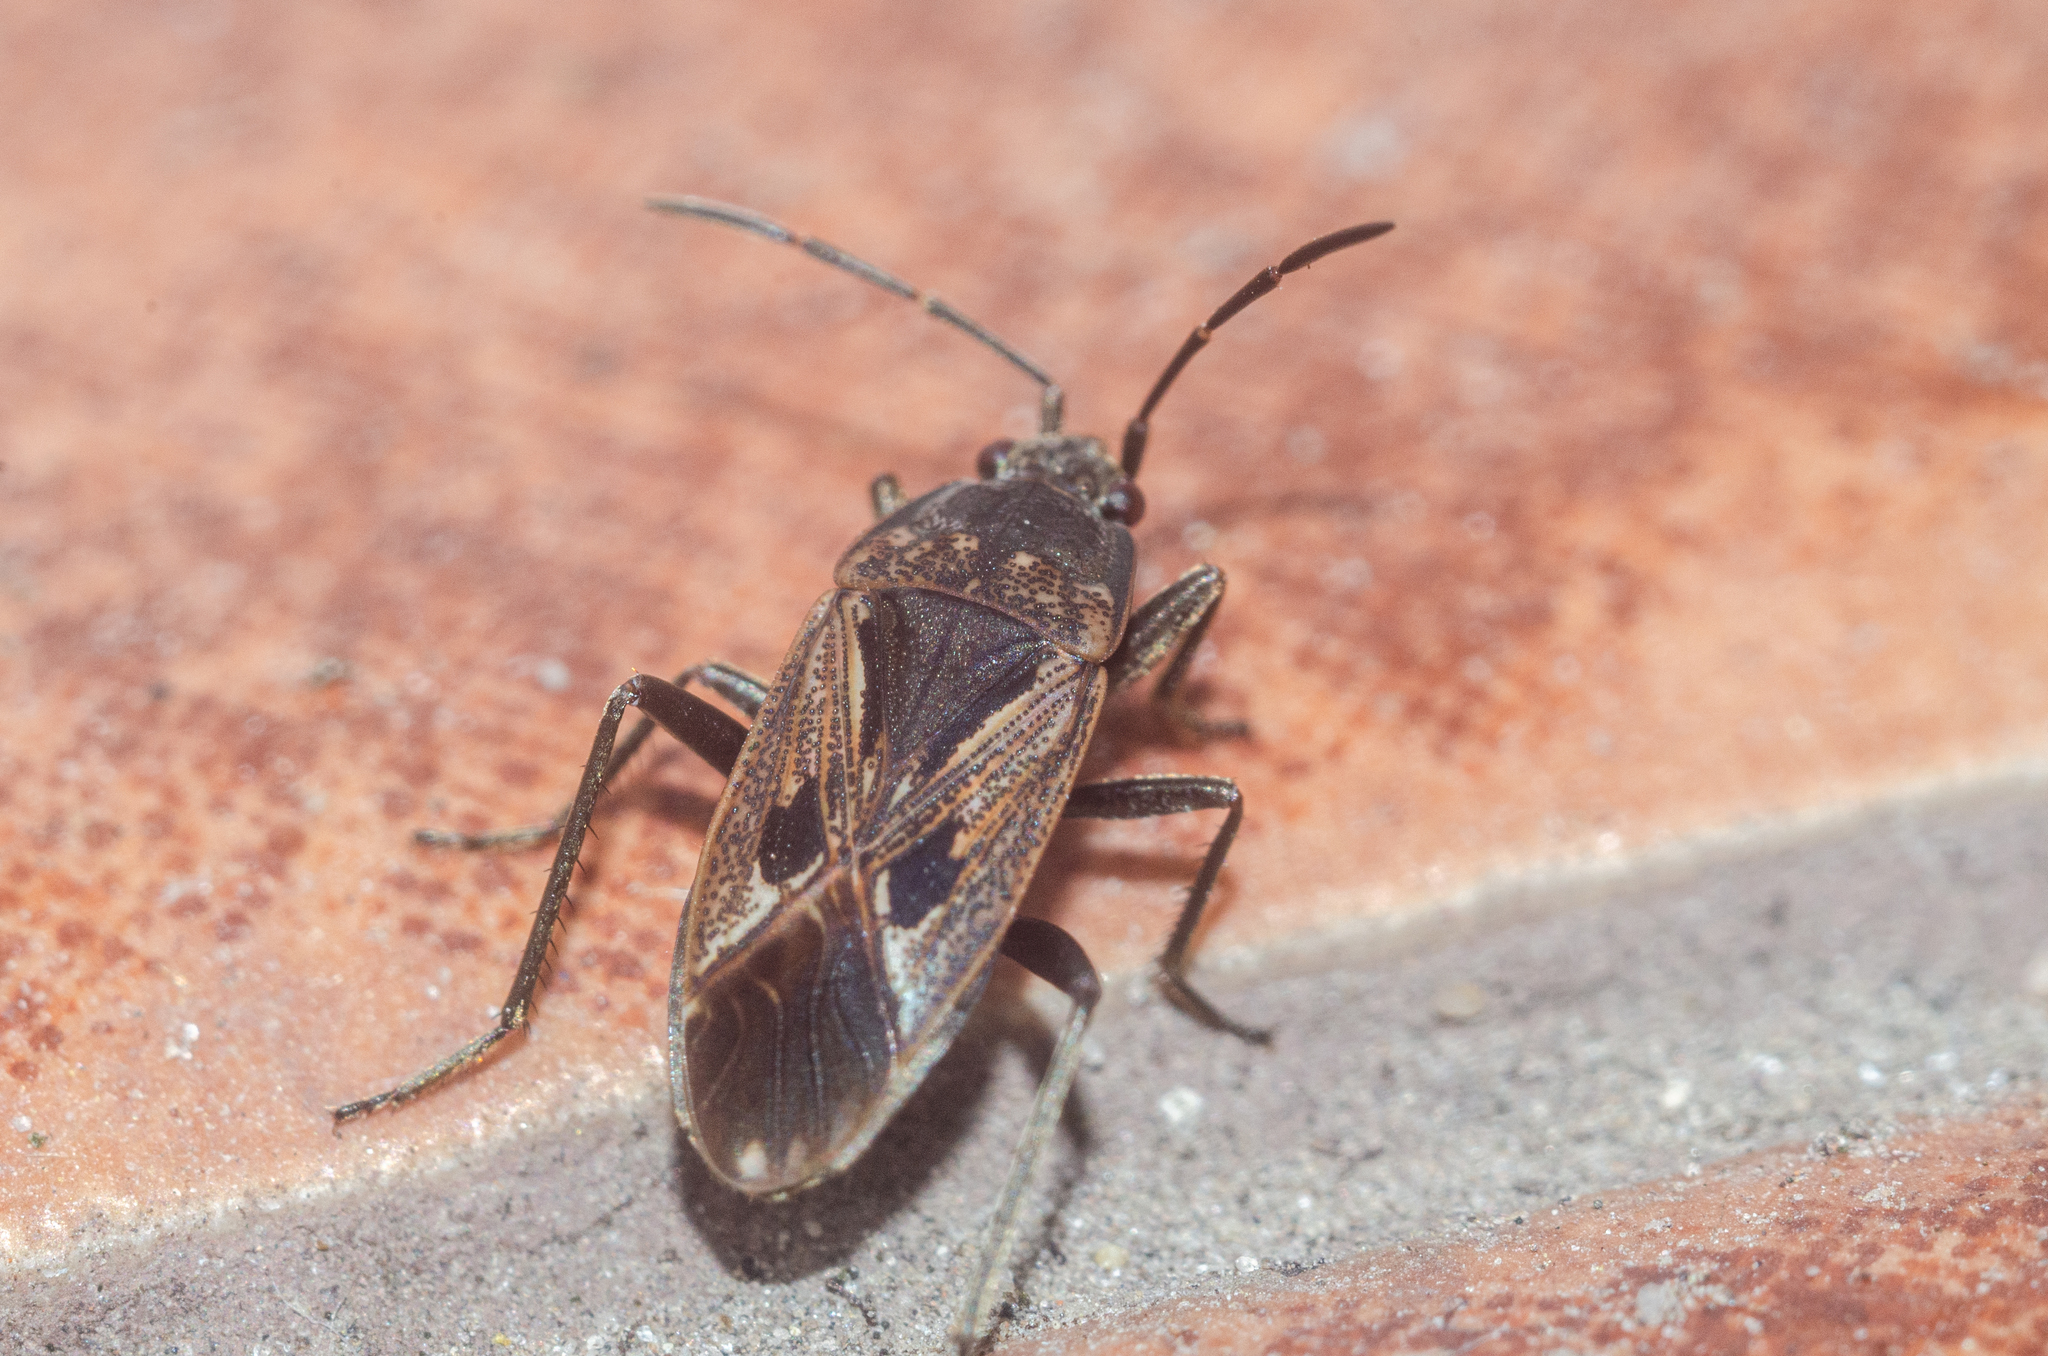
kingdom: Animalia
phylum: Arthropoda
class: Insecta
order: Hemiptera
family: Rhyparochromidae
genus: Rhyparochromus
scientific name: Rhyparochromus pini
